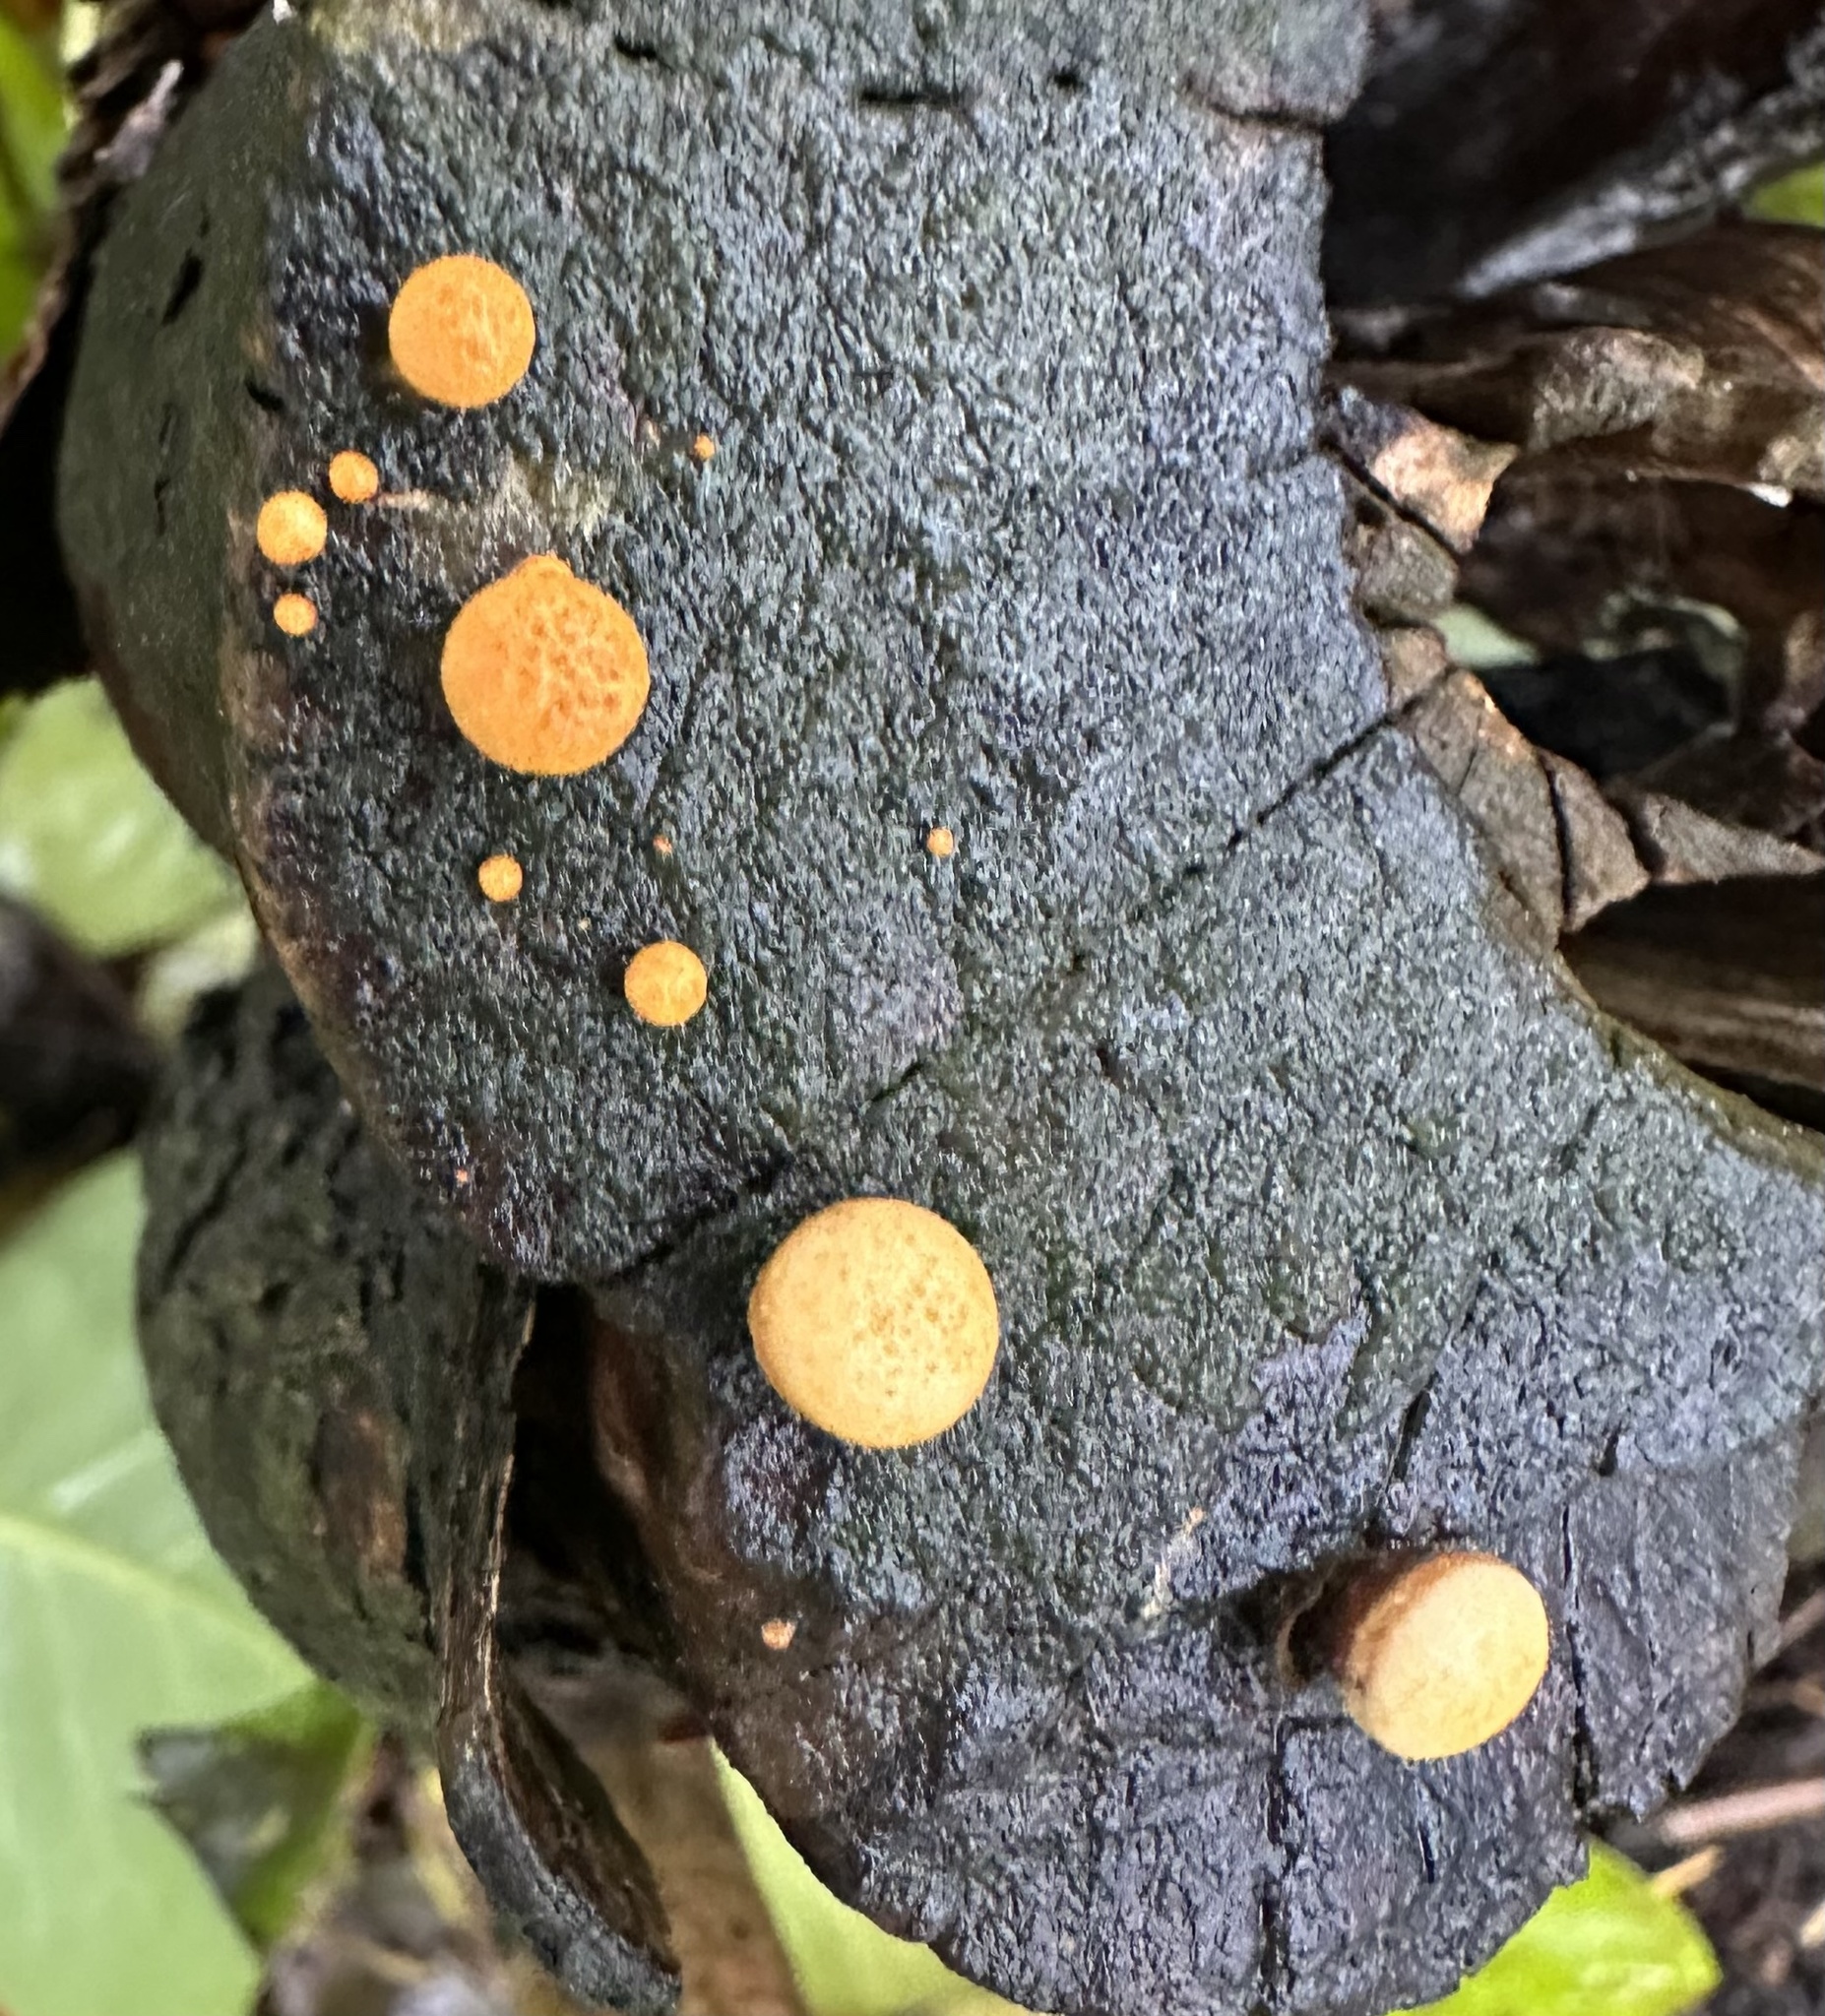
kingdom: Fungi
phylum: Basidiomycota
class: Agaricomycetes
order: Agaricales
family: Nidulariaceae
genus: Crucibulum
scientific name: Crucibulum laeve
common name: Common bird's nest
